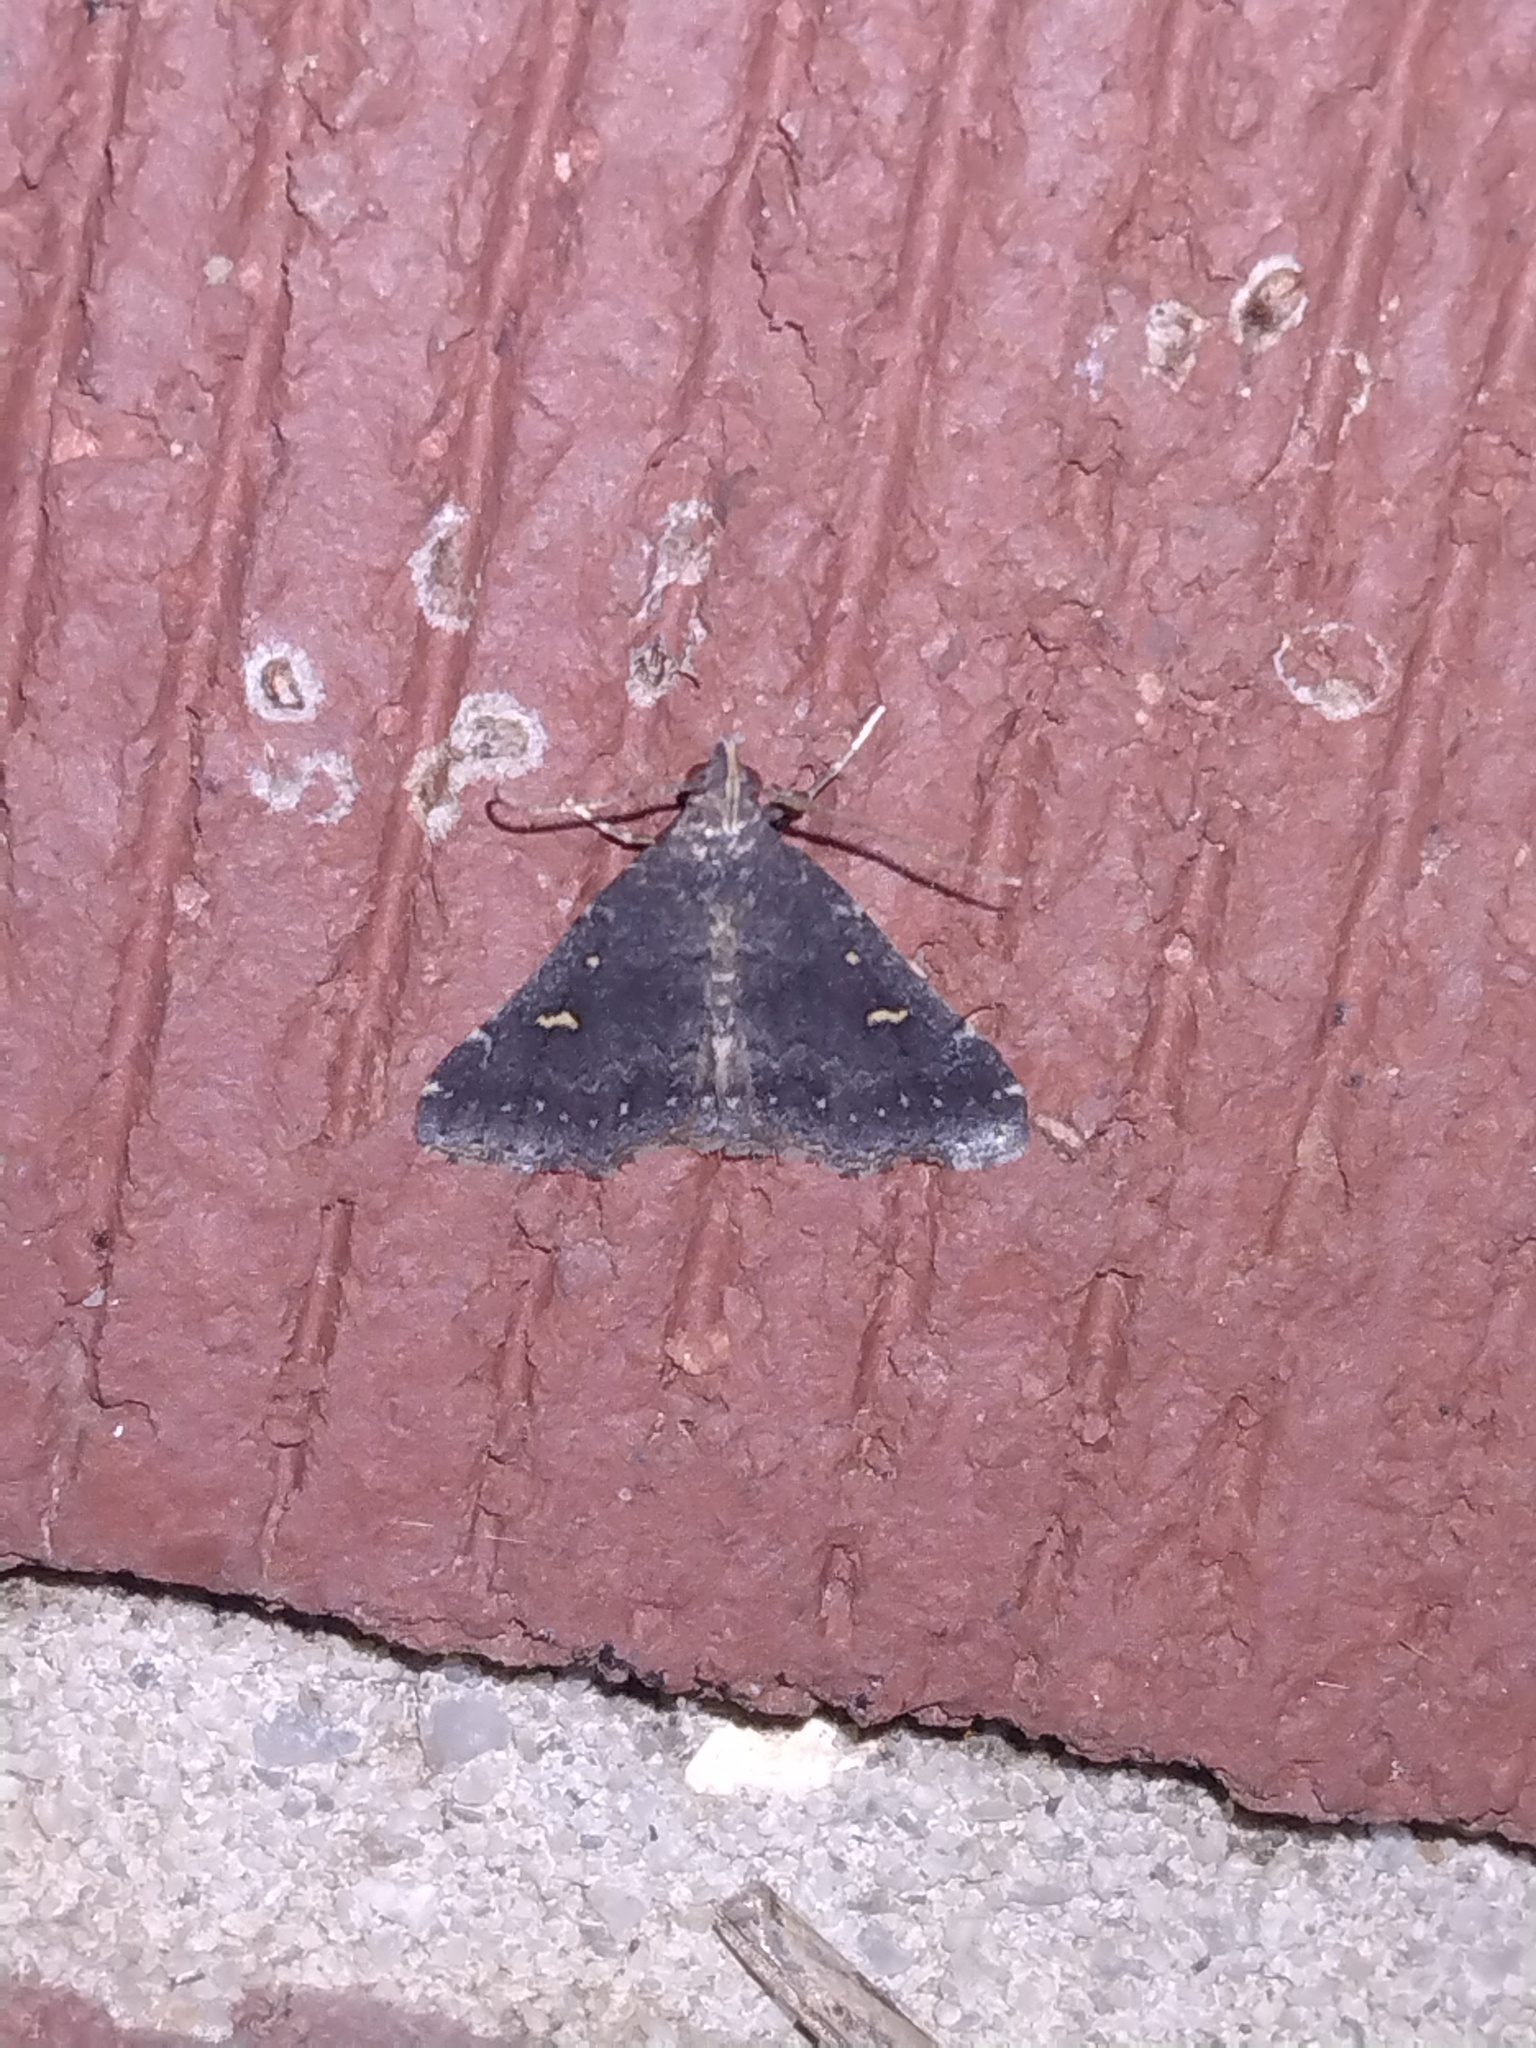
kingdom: Animalia
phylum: Arthropoda
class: Insecta
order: Lepidoptera
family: Erebidae
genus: Tetanolita
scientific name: Tetanolita mynesalis
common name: Smoky tetanolita moth
